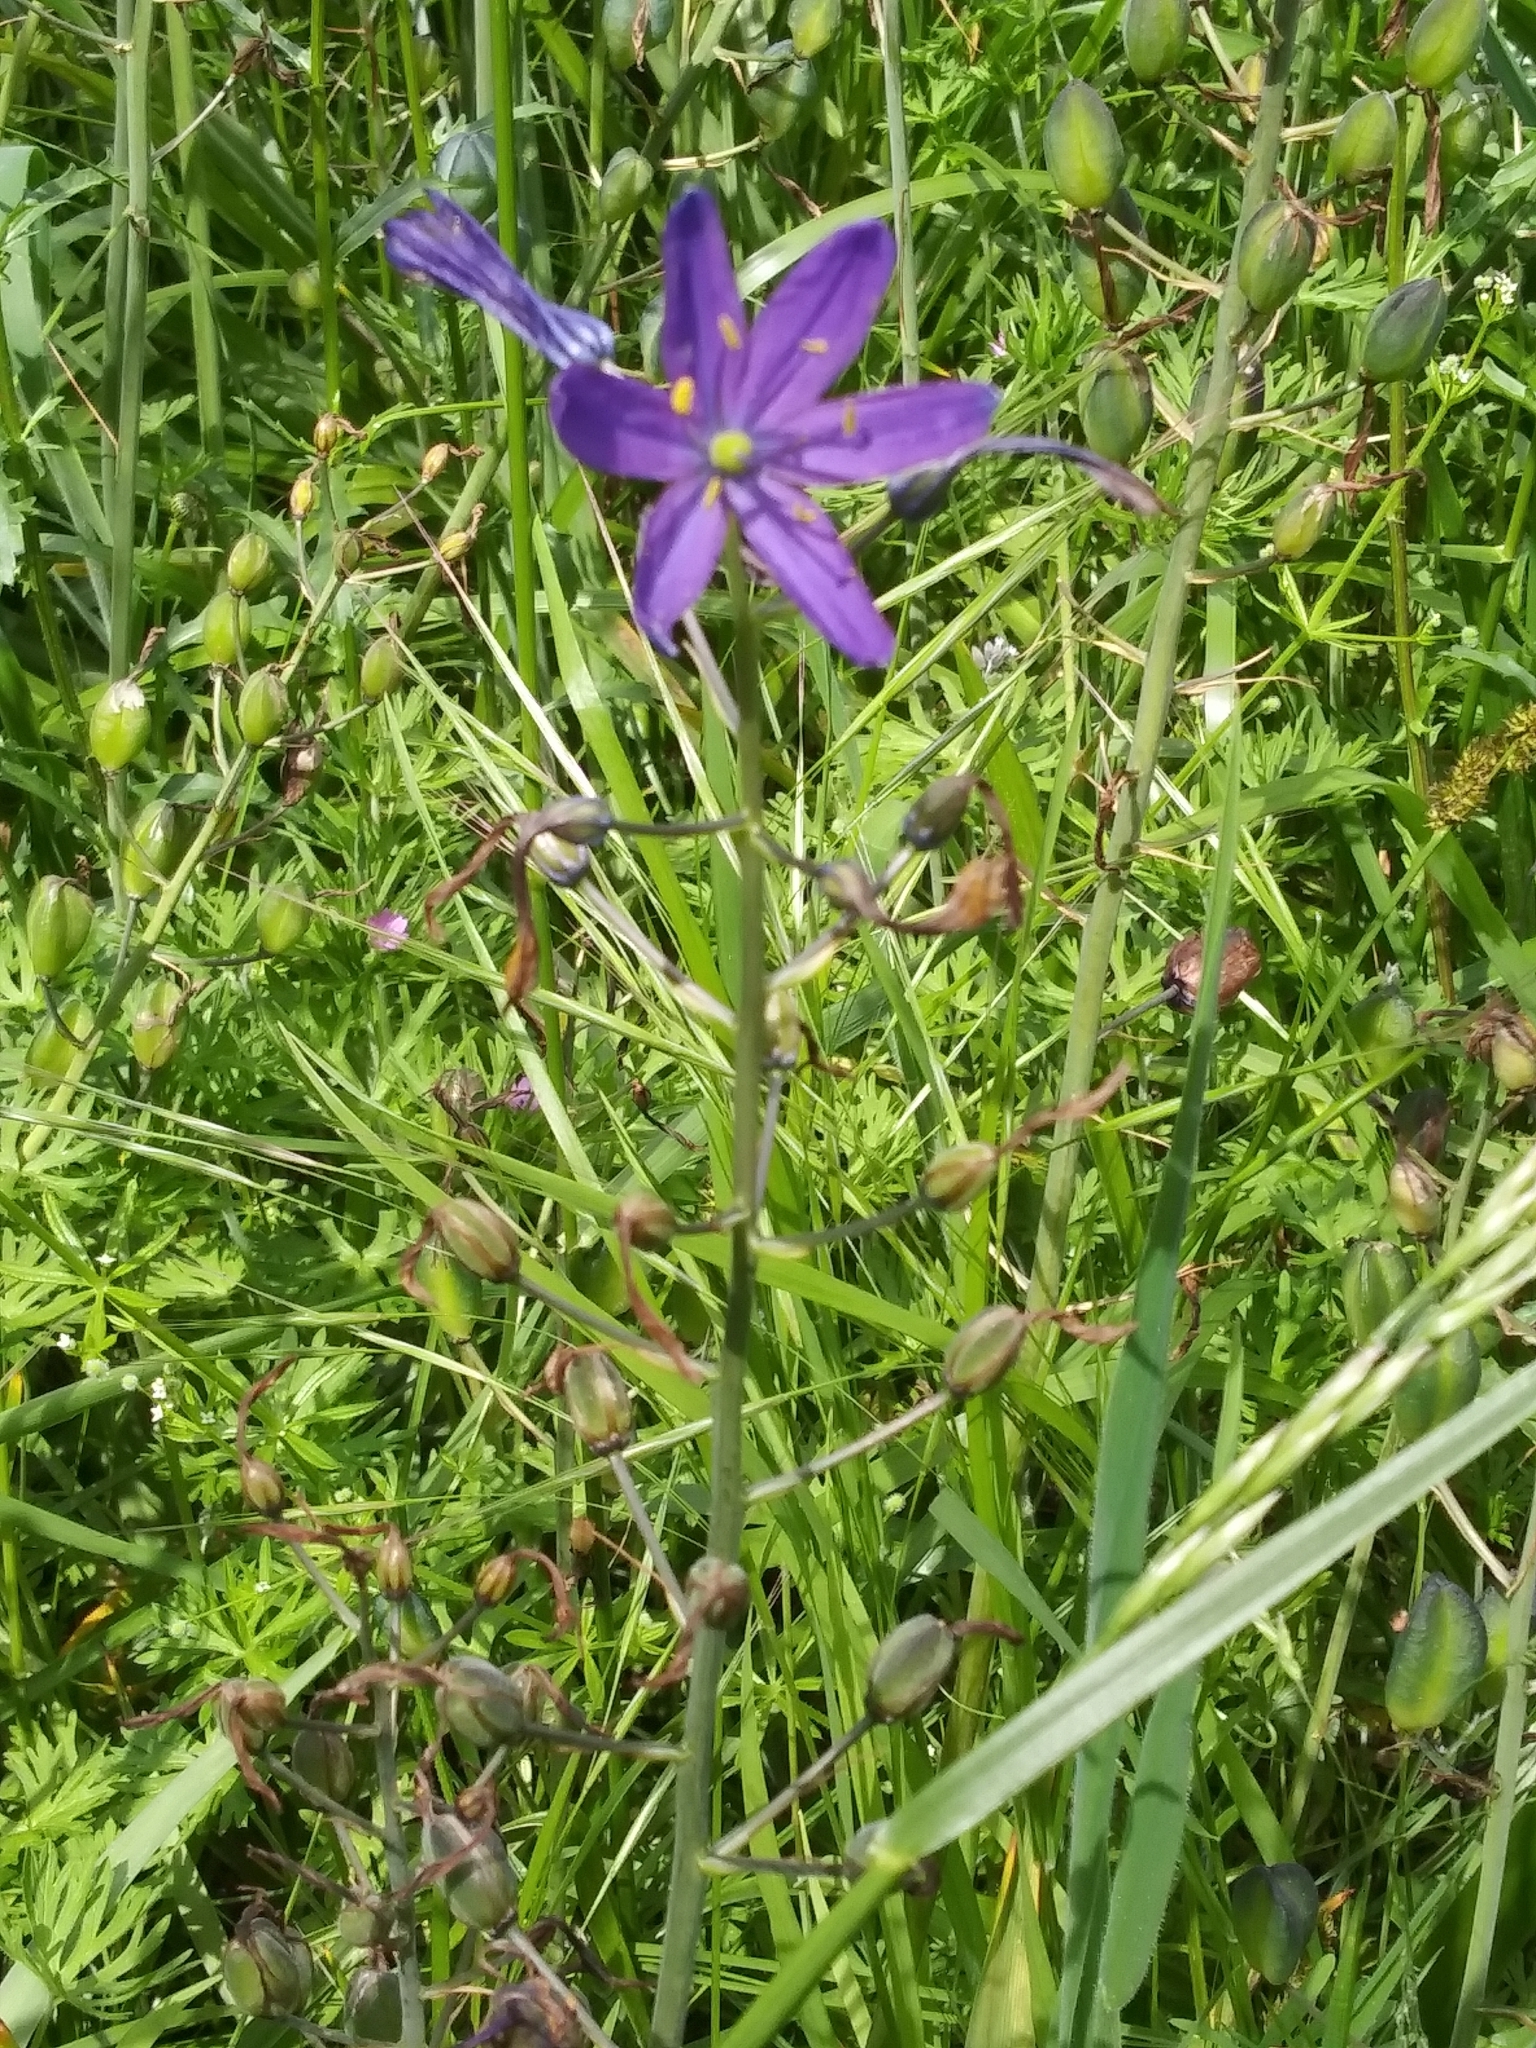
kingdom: Plantae
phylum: Tracheophyta
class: Liliopsida
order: Asparagales
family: Asparagaceae
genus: Camassia
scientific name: Camassia leichtlinii
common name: Leichtlin's camas
